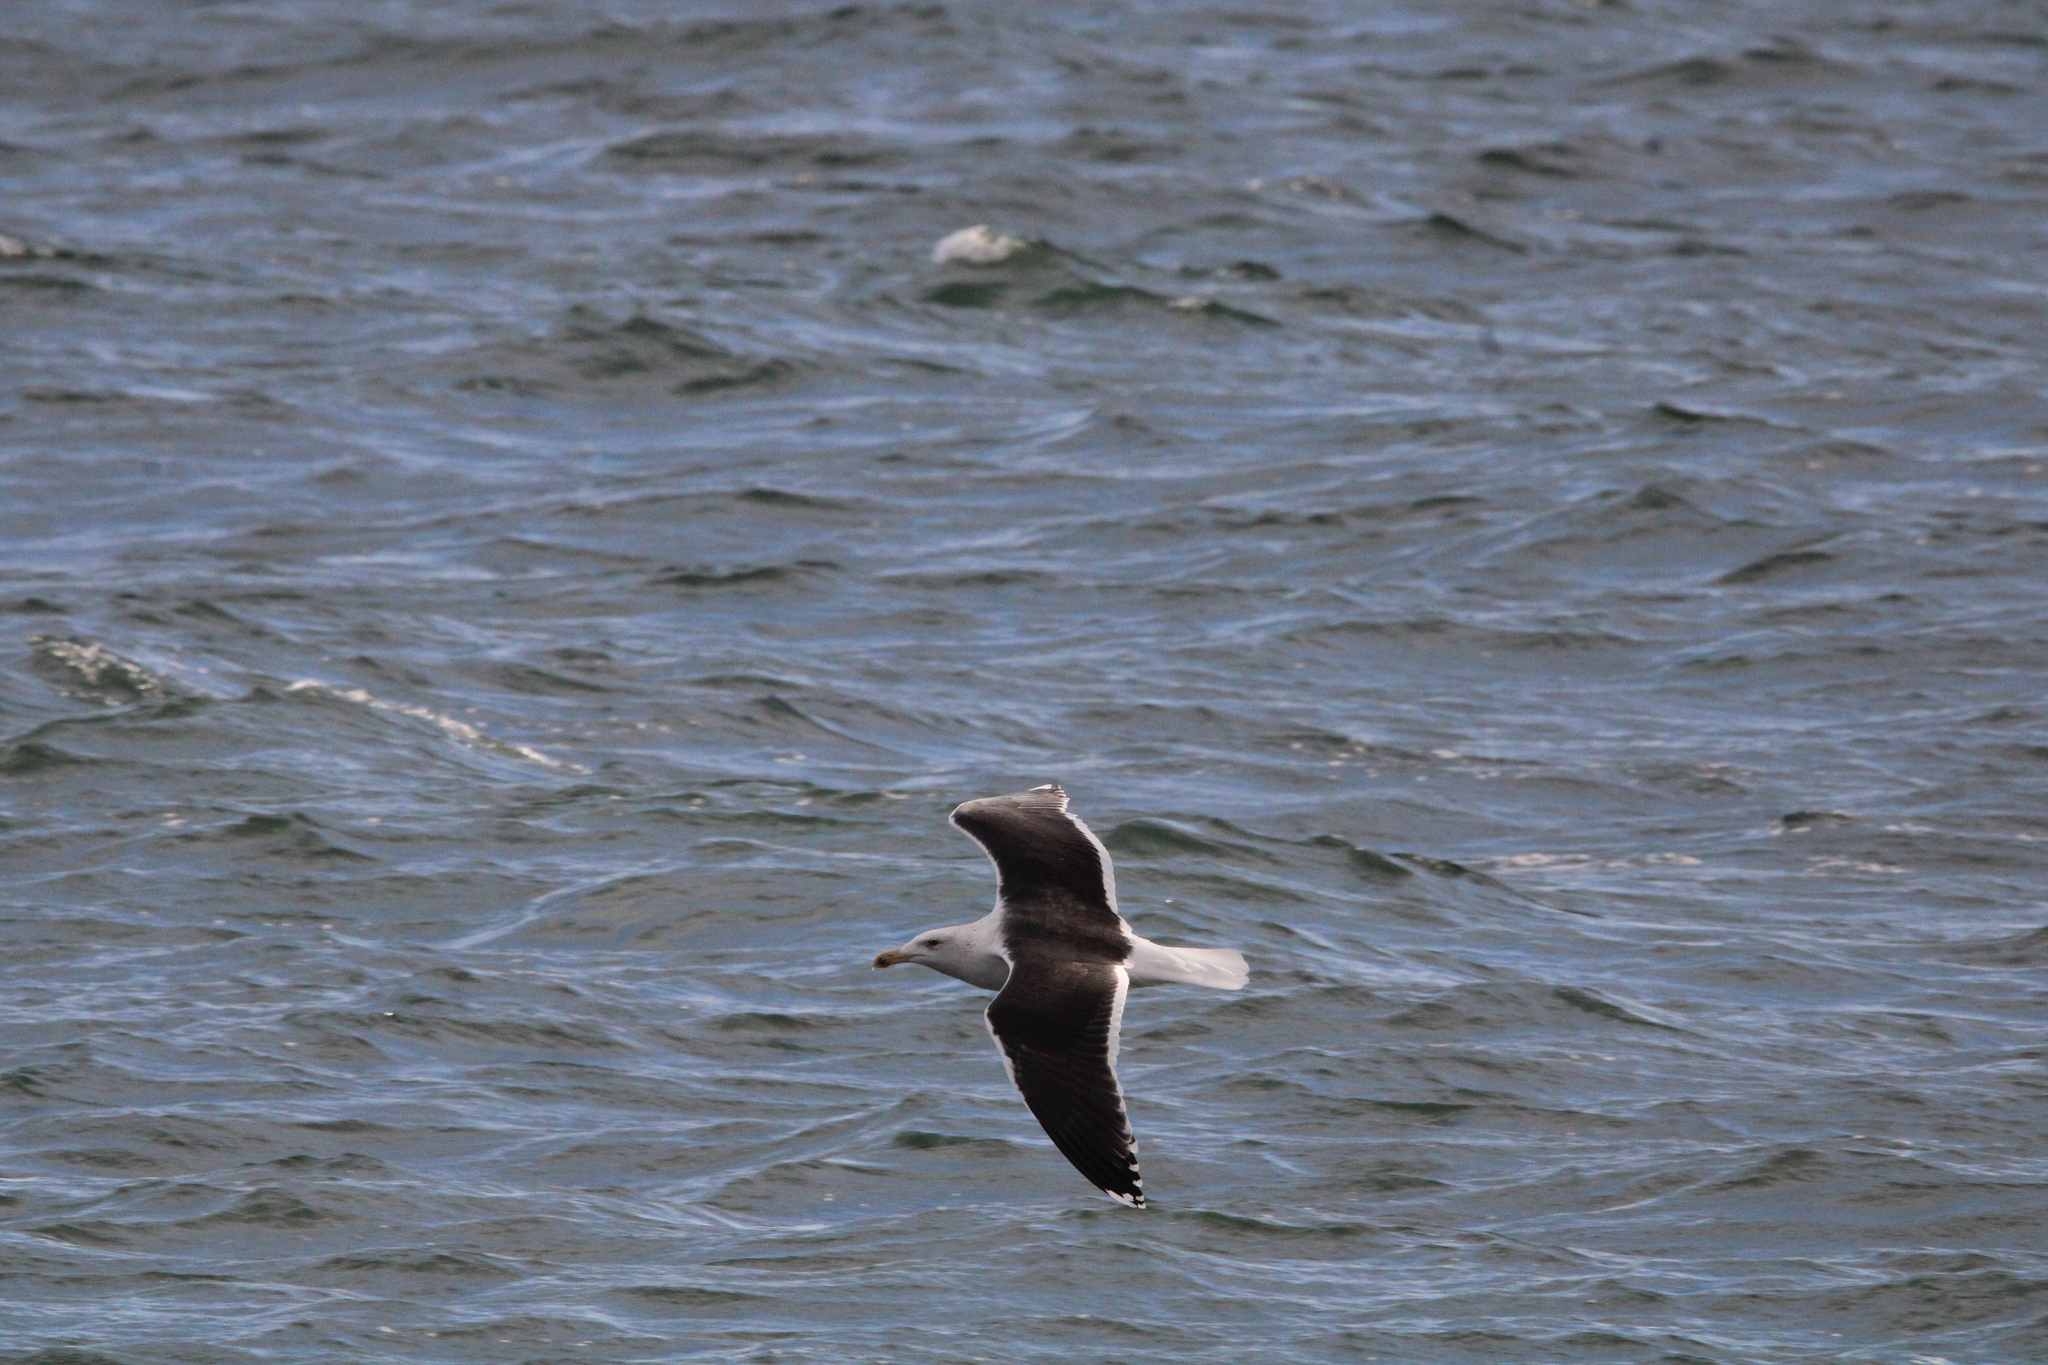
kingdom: Animalia
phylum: Chordata
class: Aves
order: Charadriiformes
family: Laridae
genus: Larus
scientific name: Larus marinus
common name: Great black-backed gull
